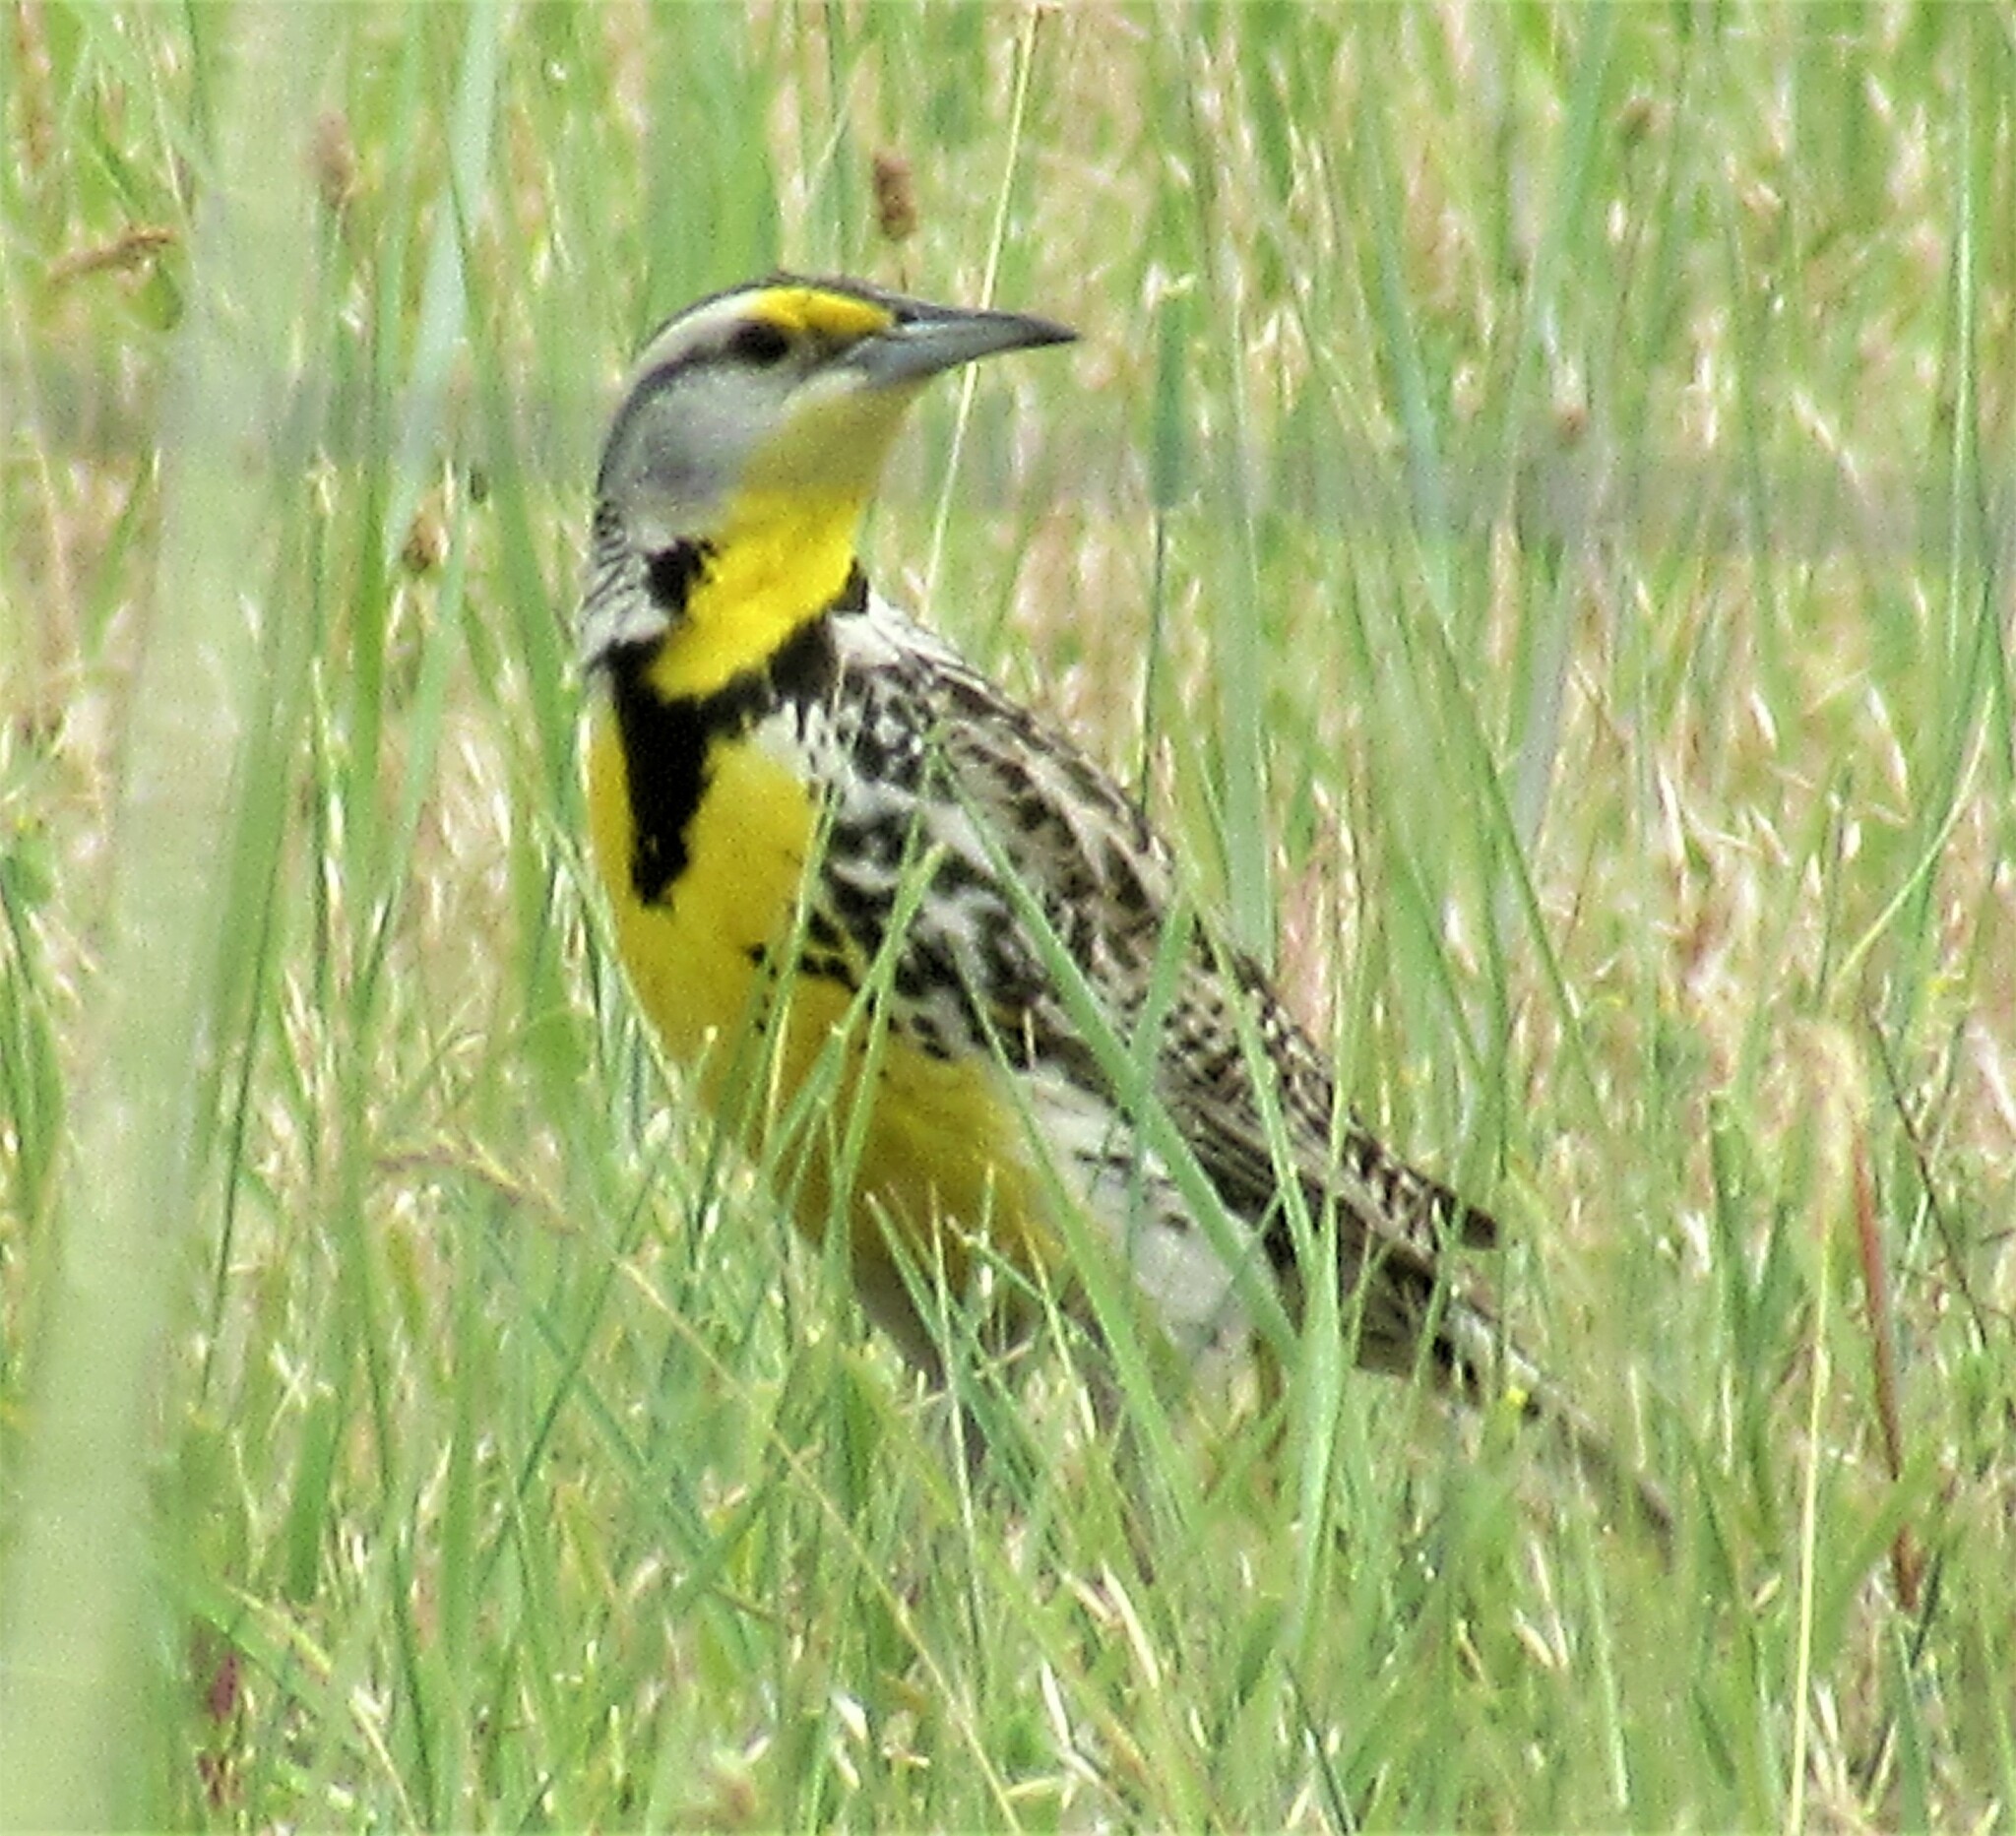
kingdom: Animalia
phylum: Chordata
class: Aves
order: Passeriformes
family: Icteridae
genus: Sturnella
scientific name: Sturnella neglecta
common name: Western meadowlark
